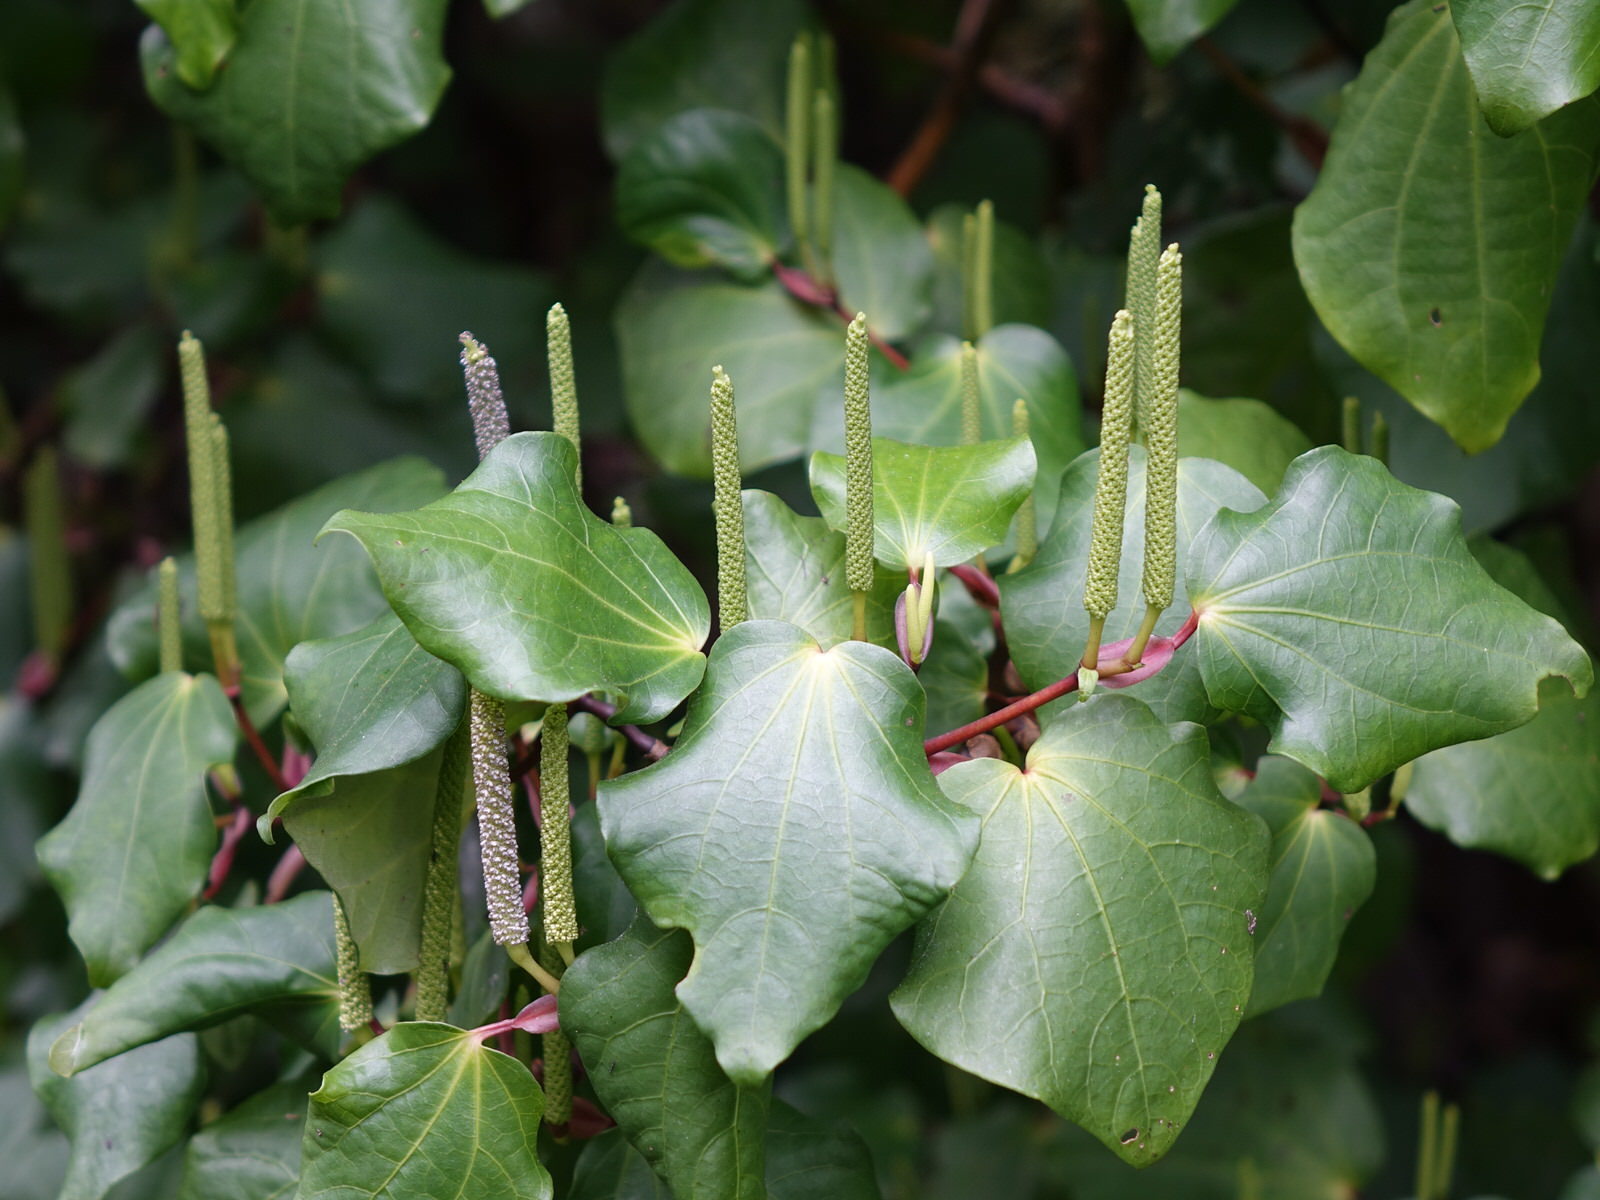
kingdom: Plantae
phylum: Tracheophyta
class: Magnoliopsida
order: Piperales
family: Piperaceae
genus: Macropiper
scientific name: Macropiper excelsum
